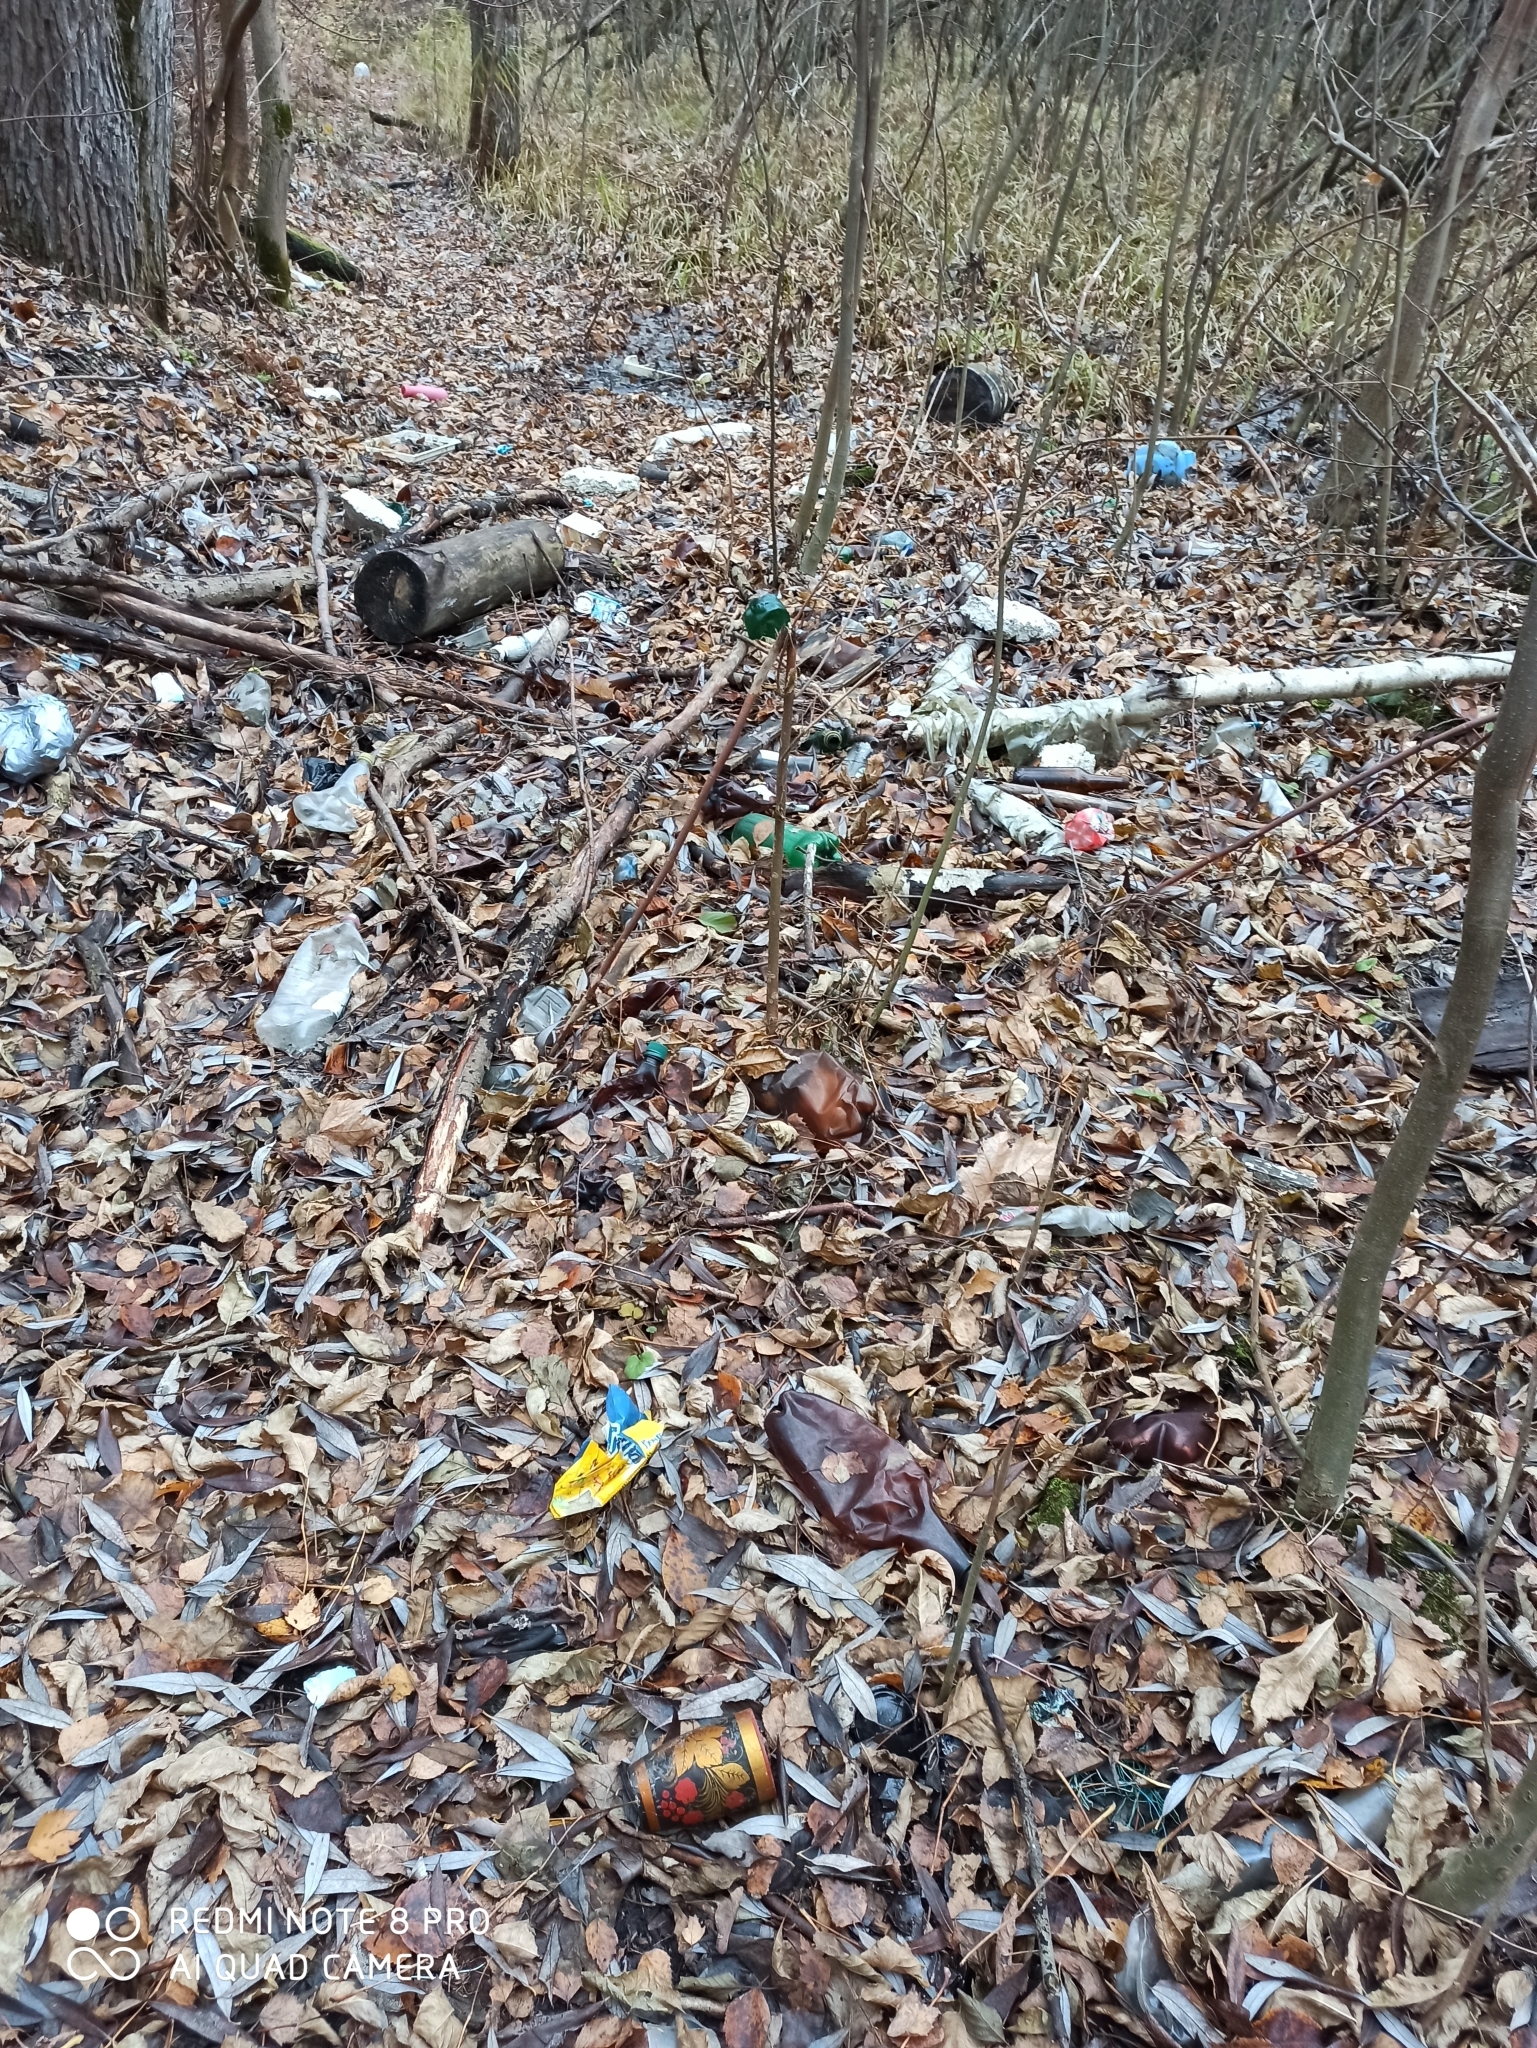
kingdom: Plantae
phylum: Tracheophyta
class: Liliopsida
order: Poales
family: Poaceae
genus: Phragmites
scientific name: Phragmites australis
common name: Common reed
